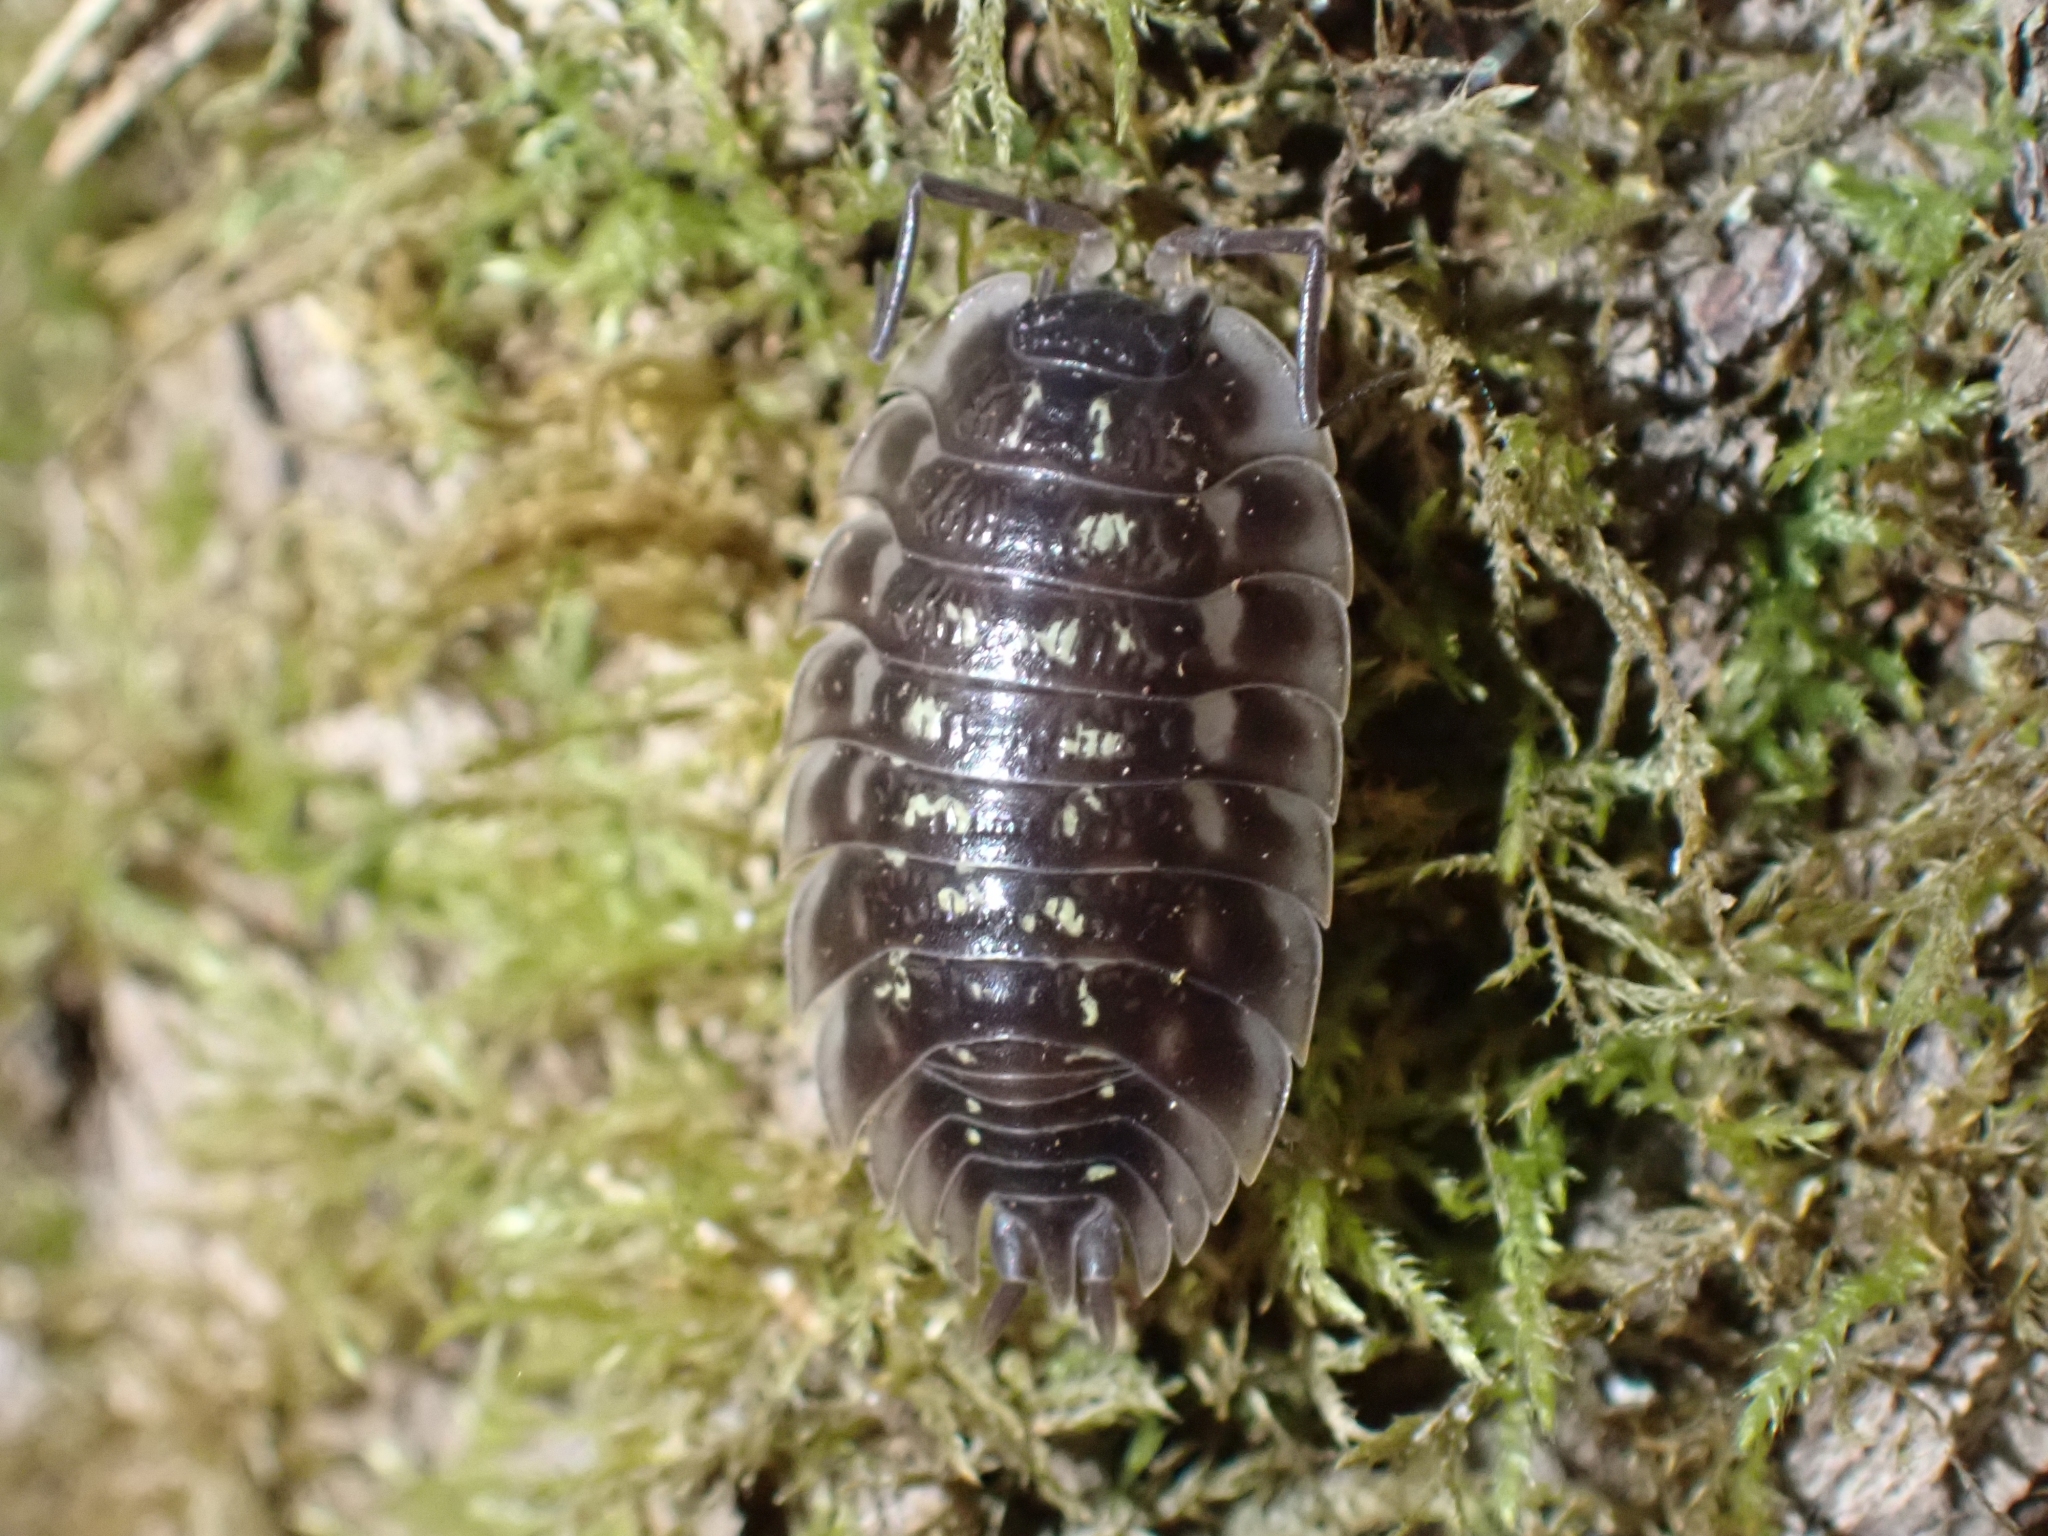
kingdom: Animalia
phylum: Arthropoda
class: Malacostraca
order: Isopoda
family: Oniscidae
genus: Oniscus
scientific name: Oniscus asellus
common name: Common shiny woodlouse
